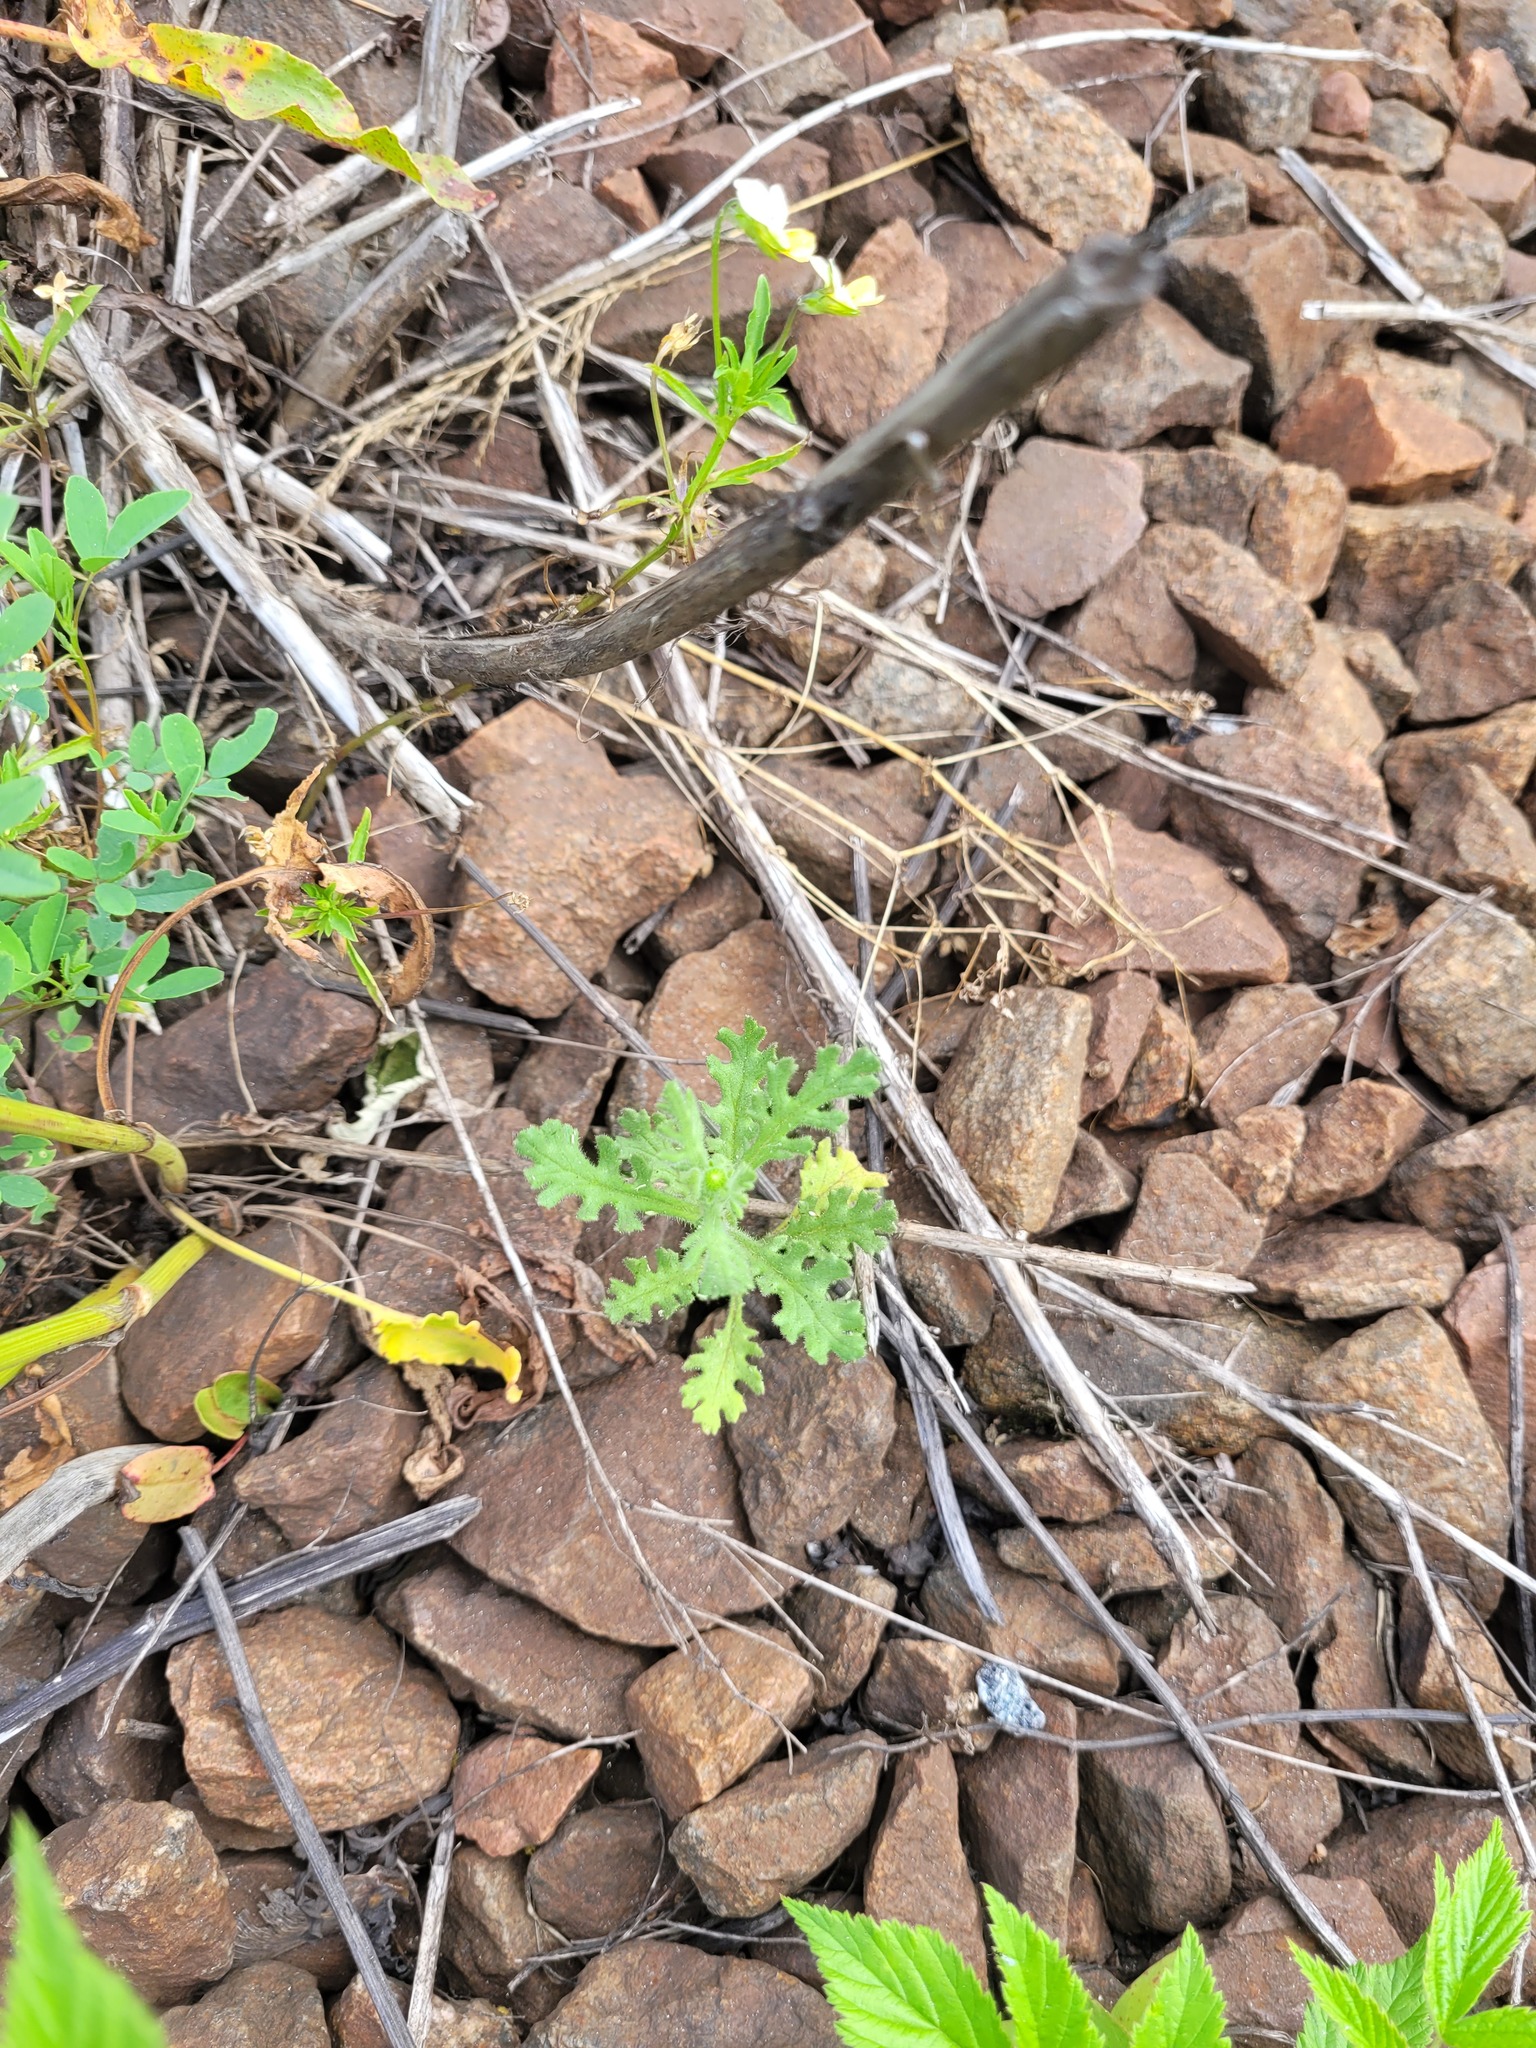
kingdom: Plantae
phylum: Tracheophyta
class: Magnoliopsida
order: Asterales
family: Asteraceae
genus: Senecio
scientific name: Senecio viscosus
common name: Sticky groundsel
